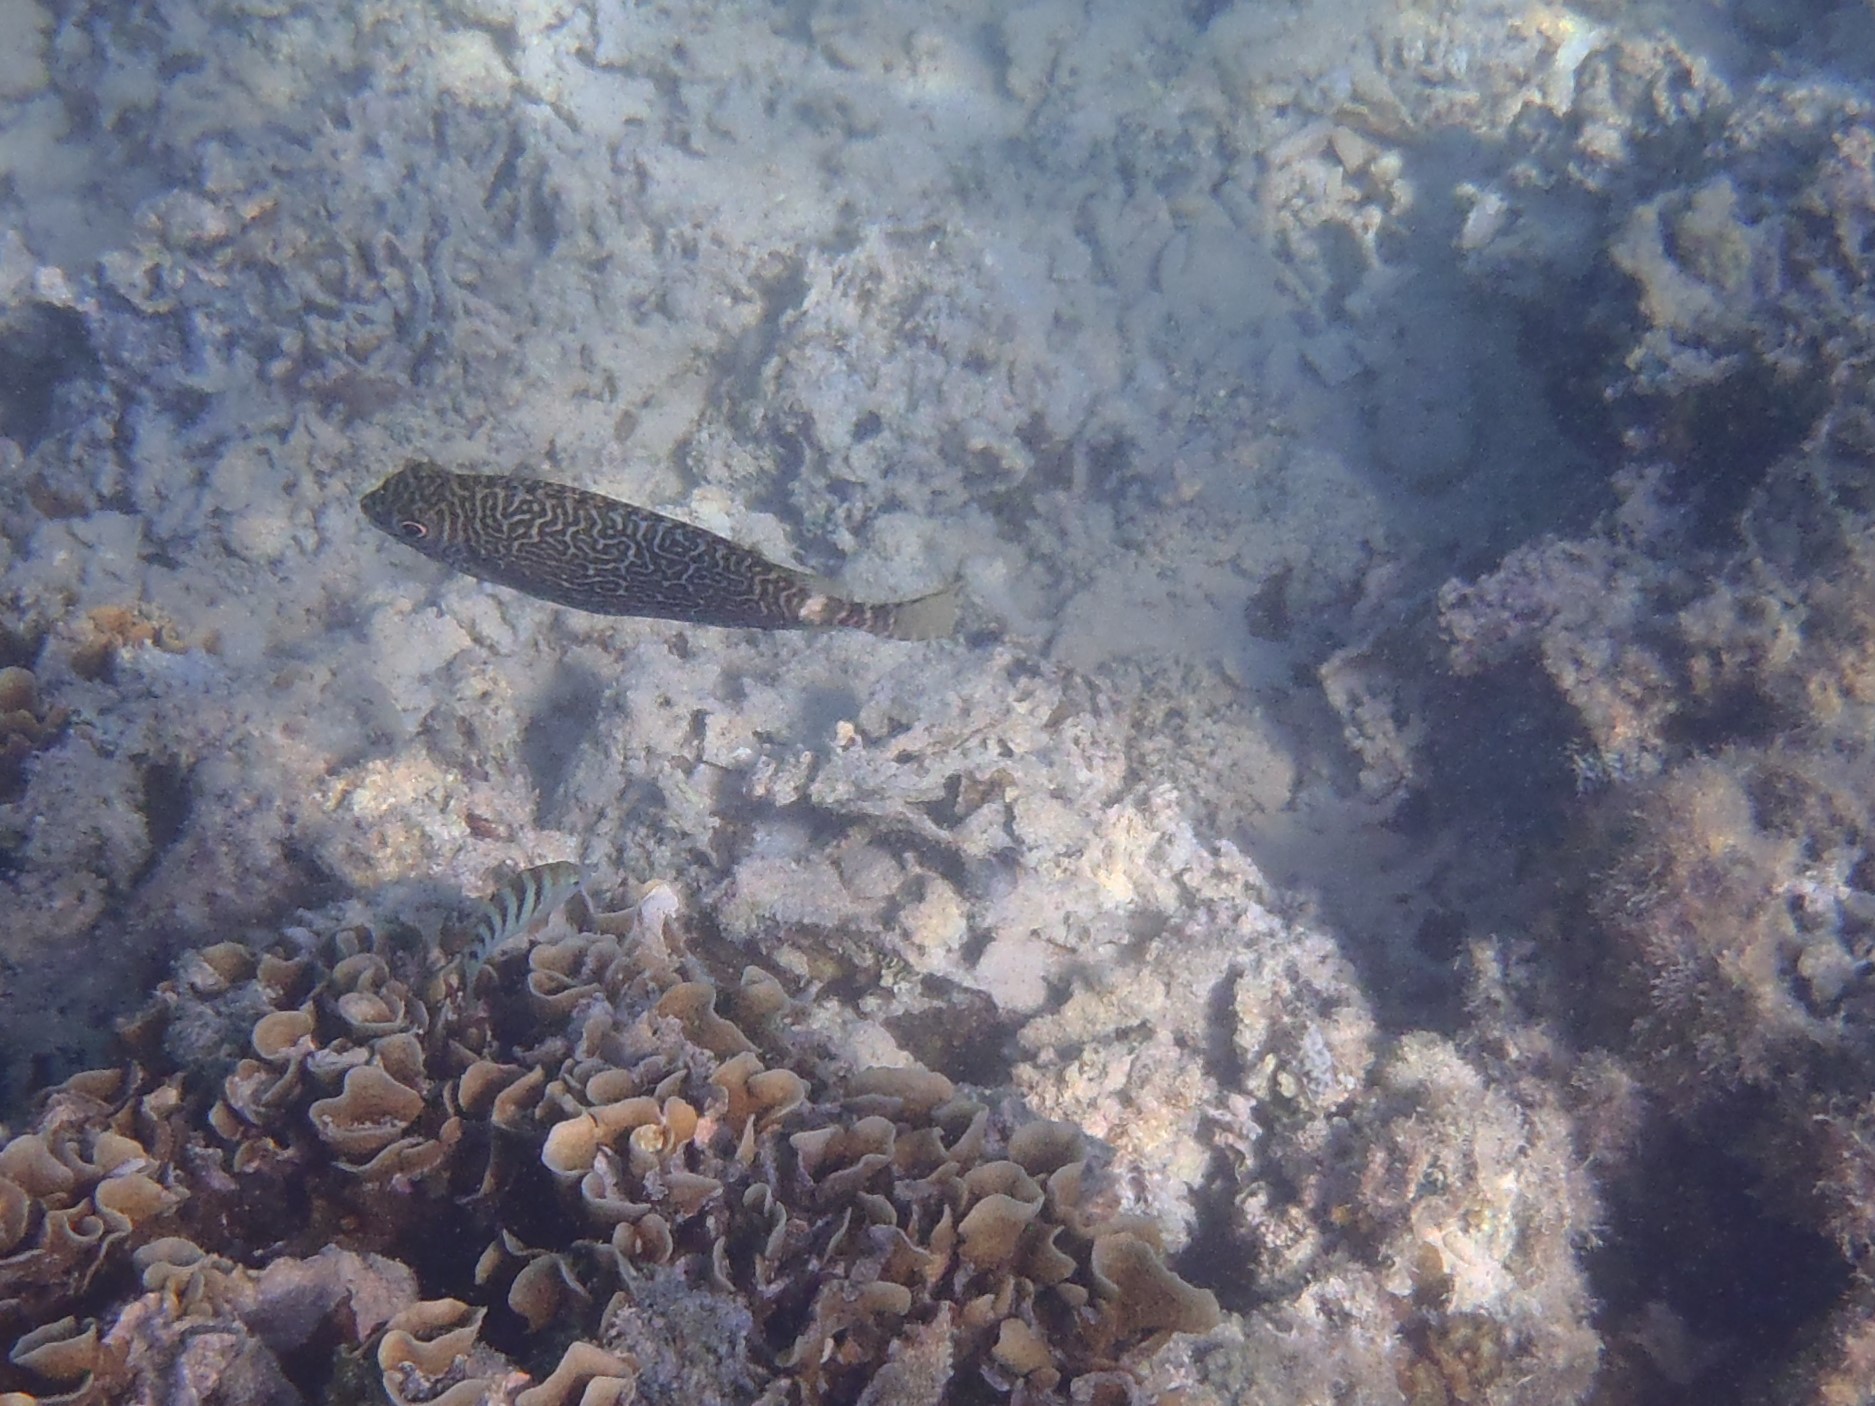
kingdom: Animalia
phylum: Chordata
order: Perciformes
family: Siganidae
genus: Siganus
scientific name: Siganus spinus
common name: Scribbled rabbitfish
